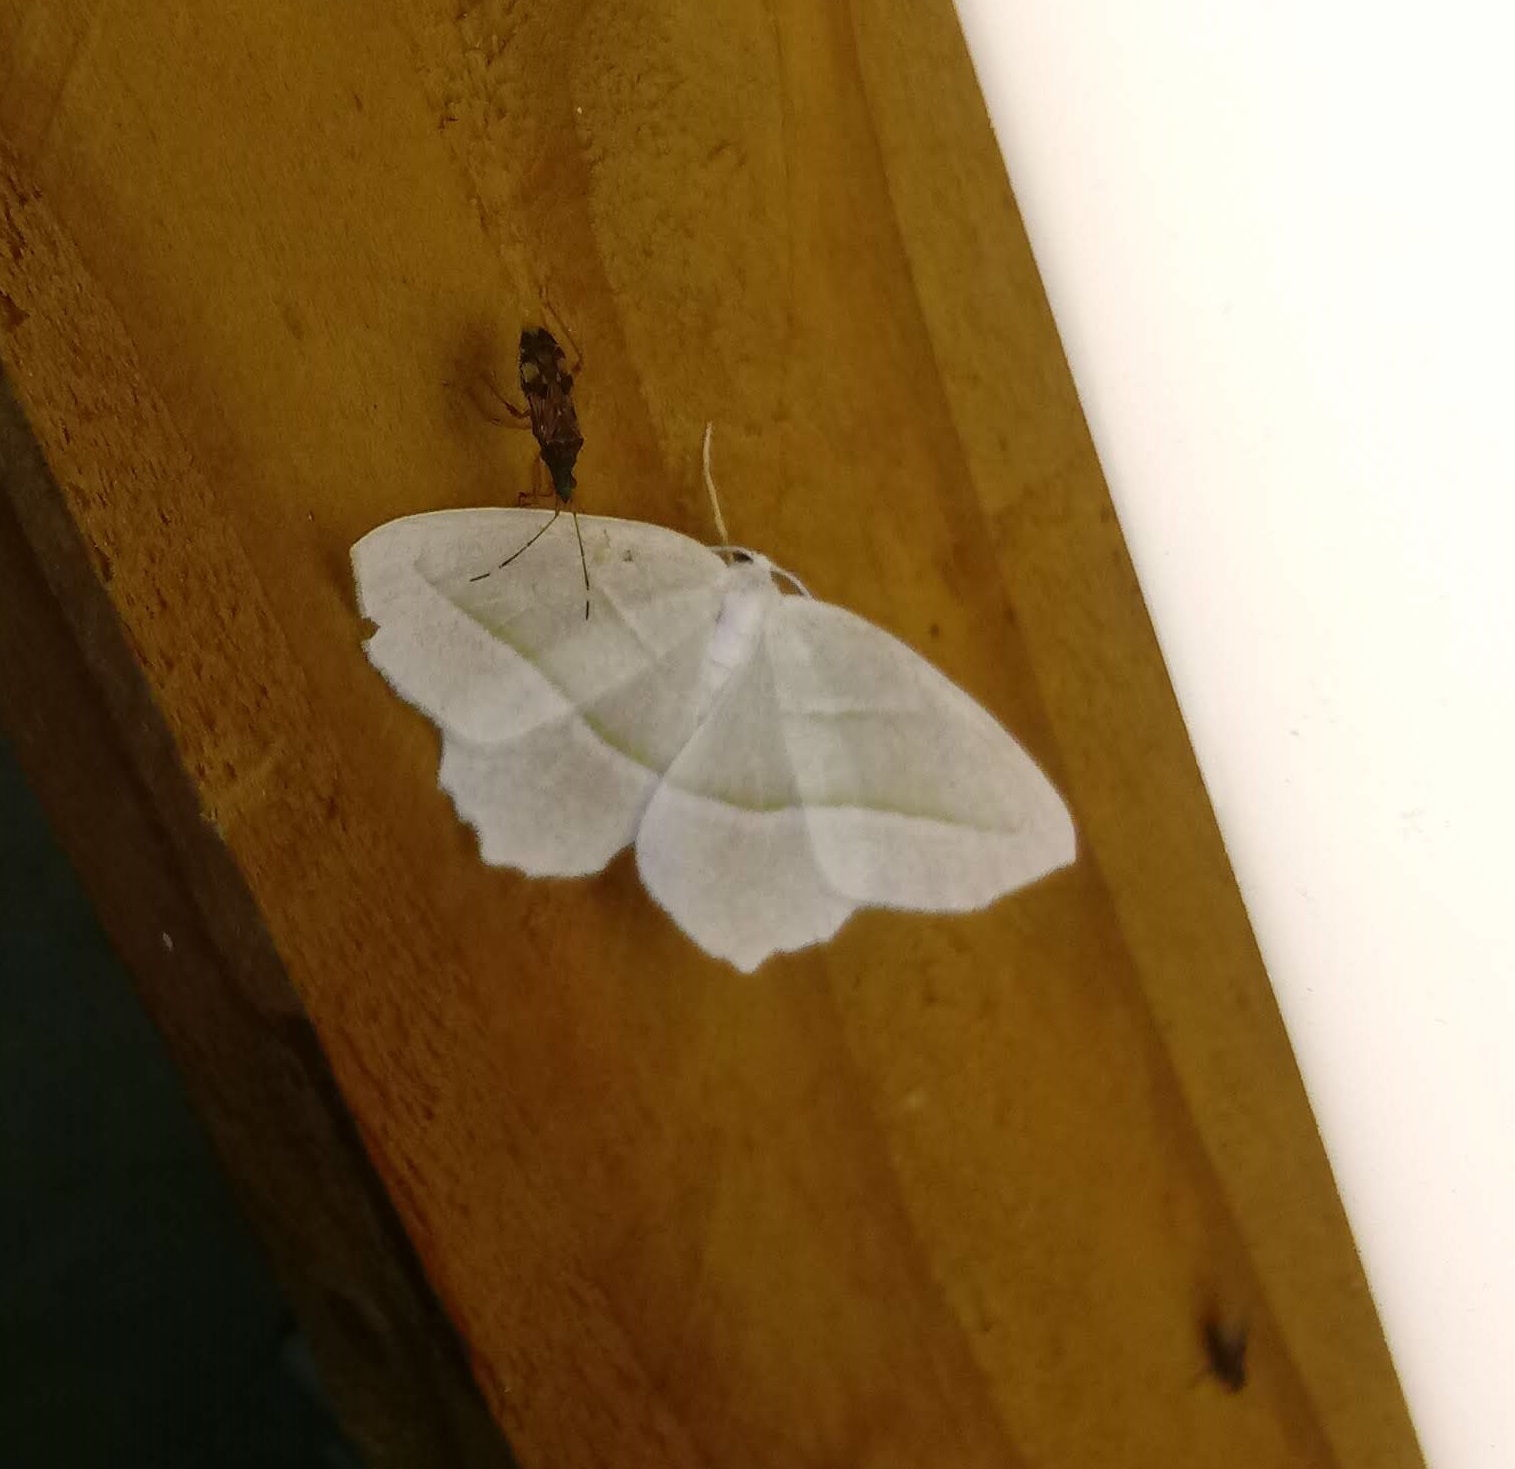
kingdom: Animalia
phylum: Arthropoda
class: Insecta
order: Lepidoptera
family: Geometridae
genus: Campaea
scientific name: Campaea perlata
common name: Fringed looper
